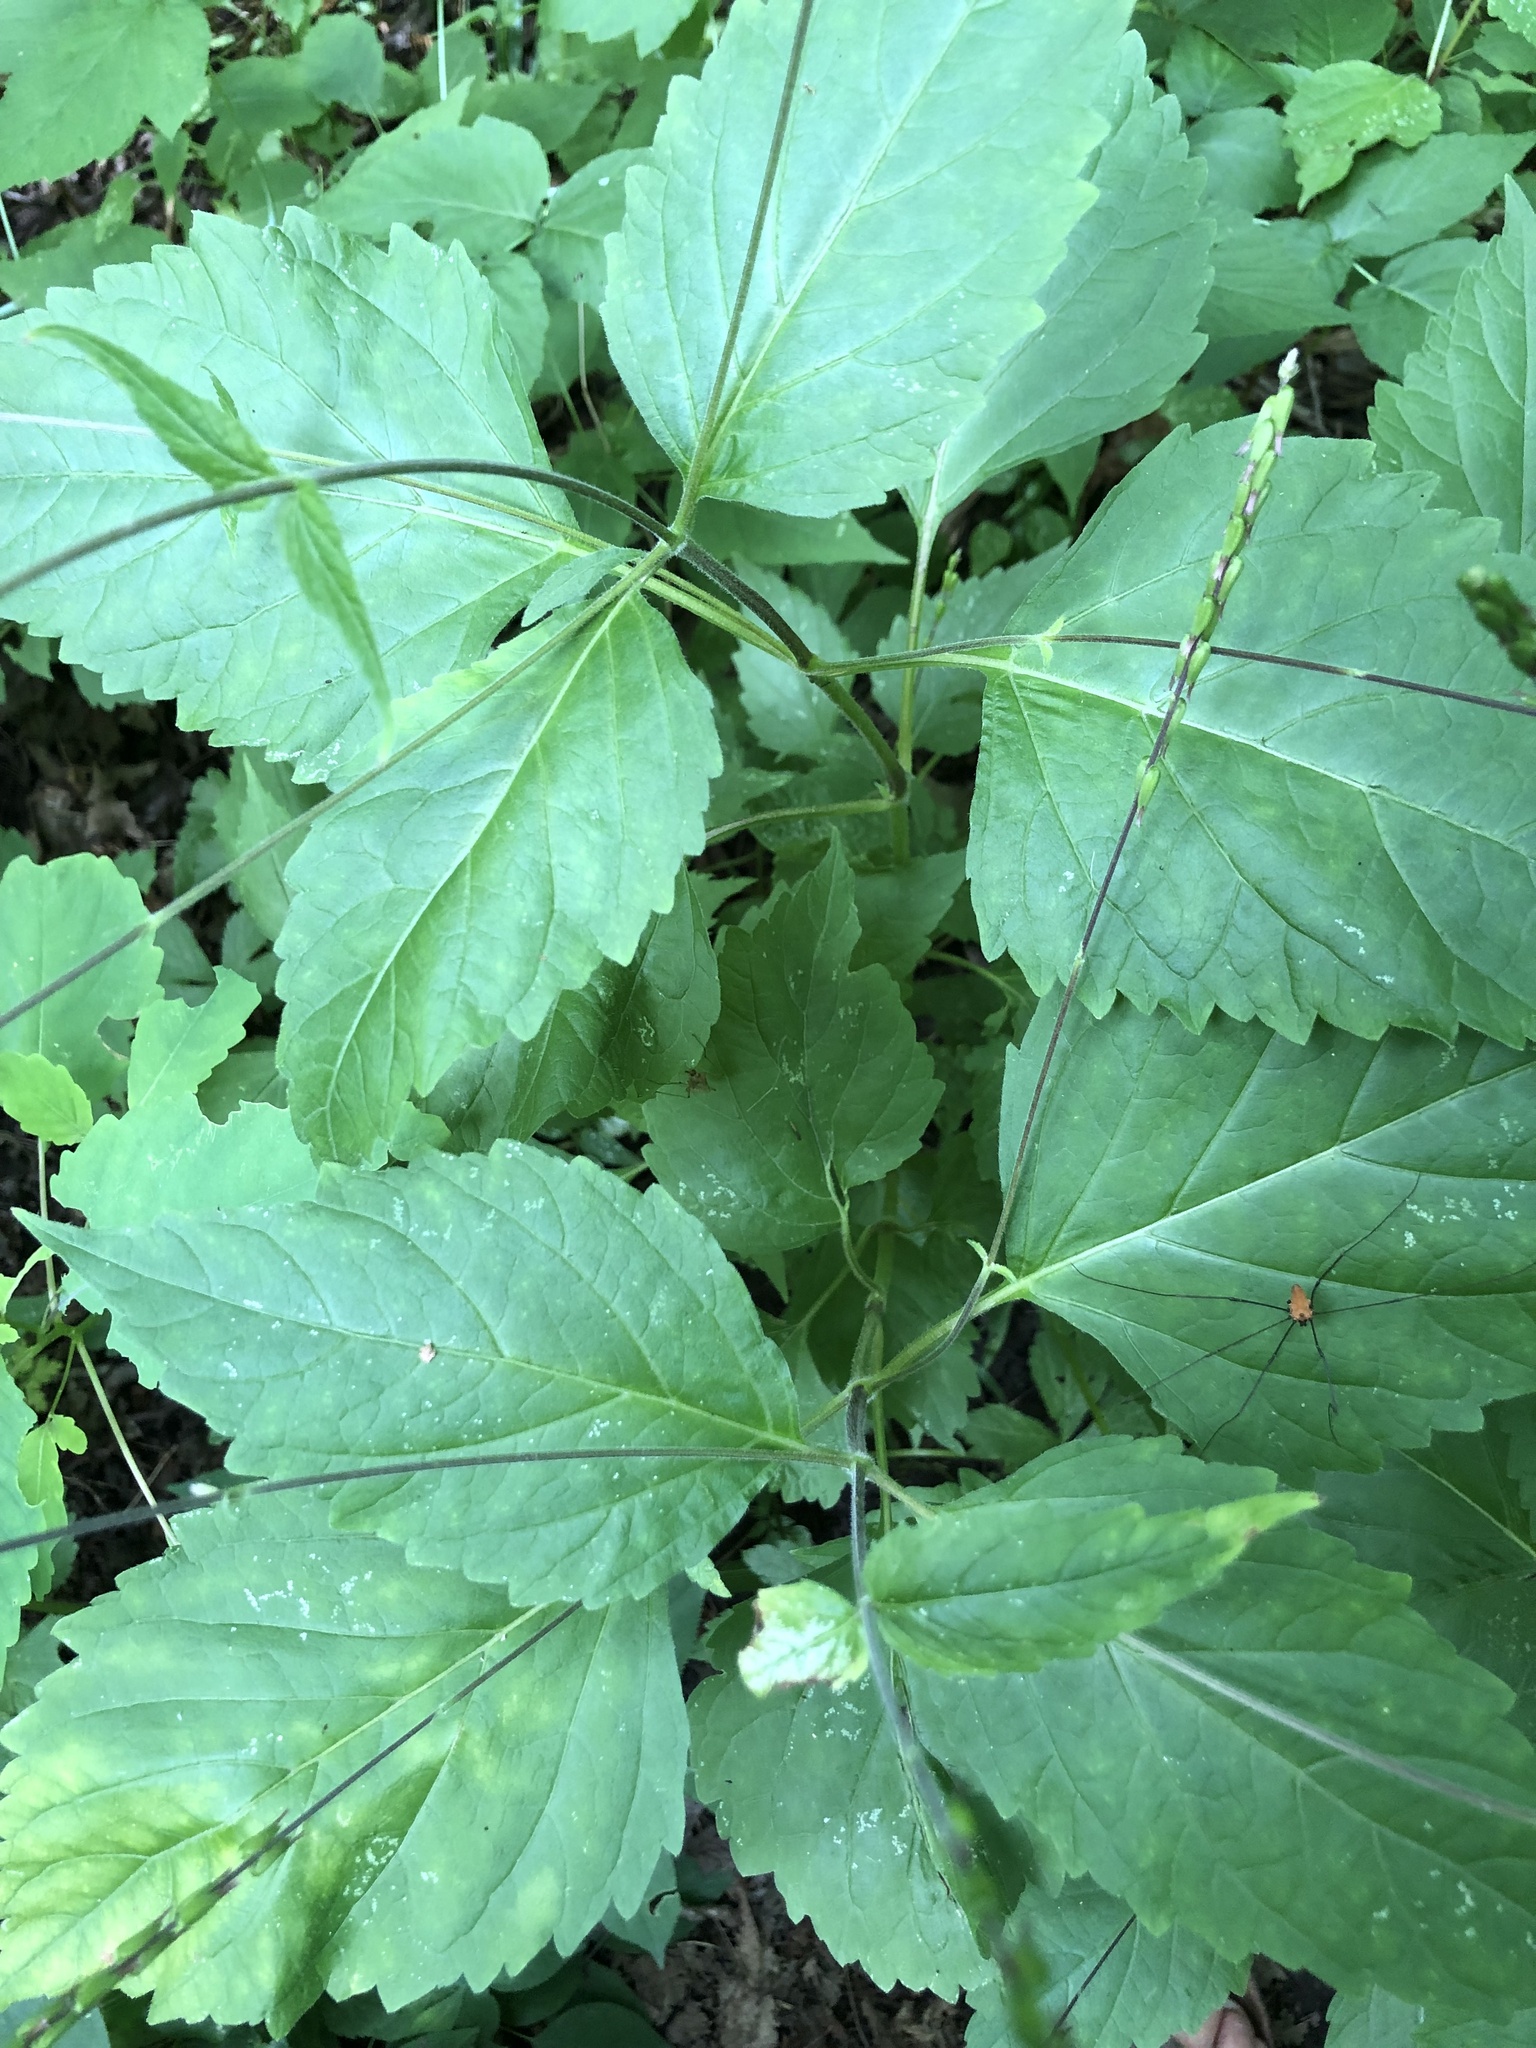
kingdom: Plantae
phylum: Tracheophyta
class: Magnoliopsida
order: Lamiales
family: Phrymaceae
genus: Phryma
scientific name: Phryma leptostachya
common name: American lopseed
